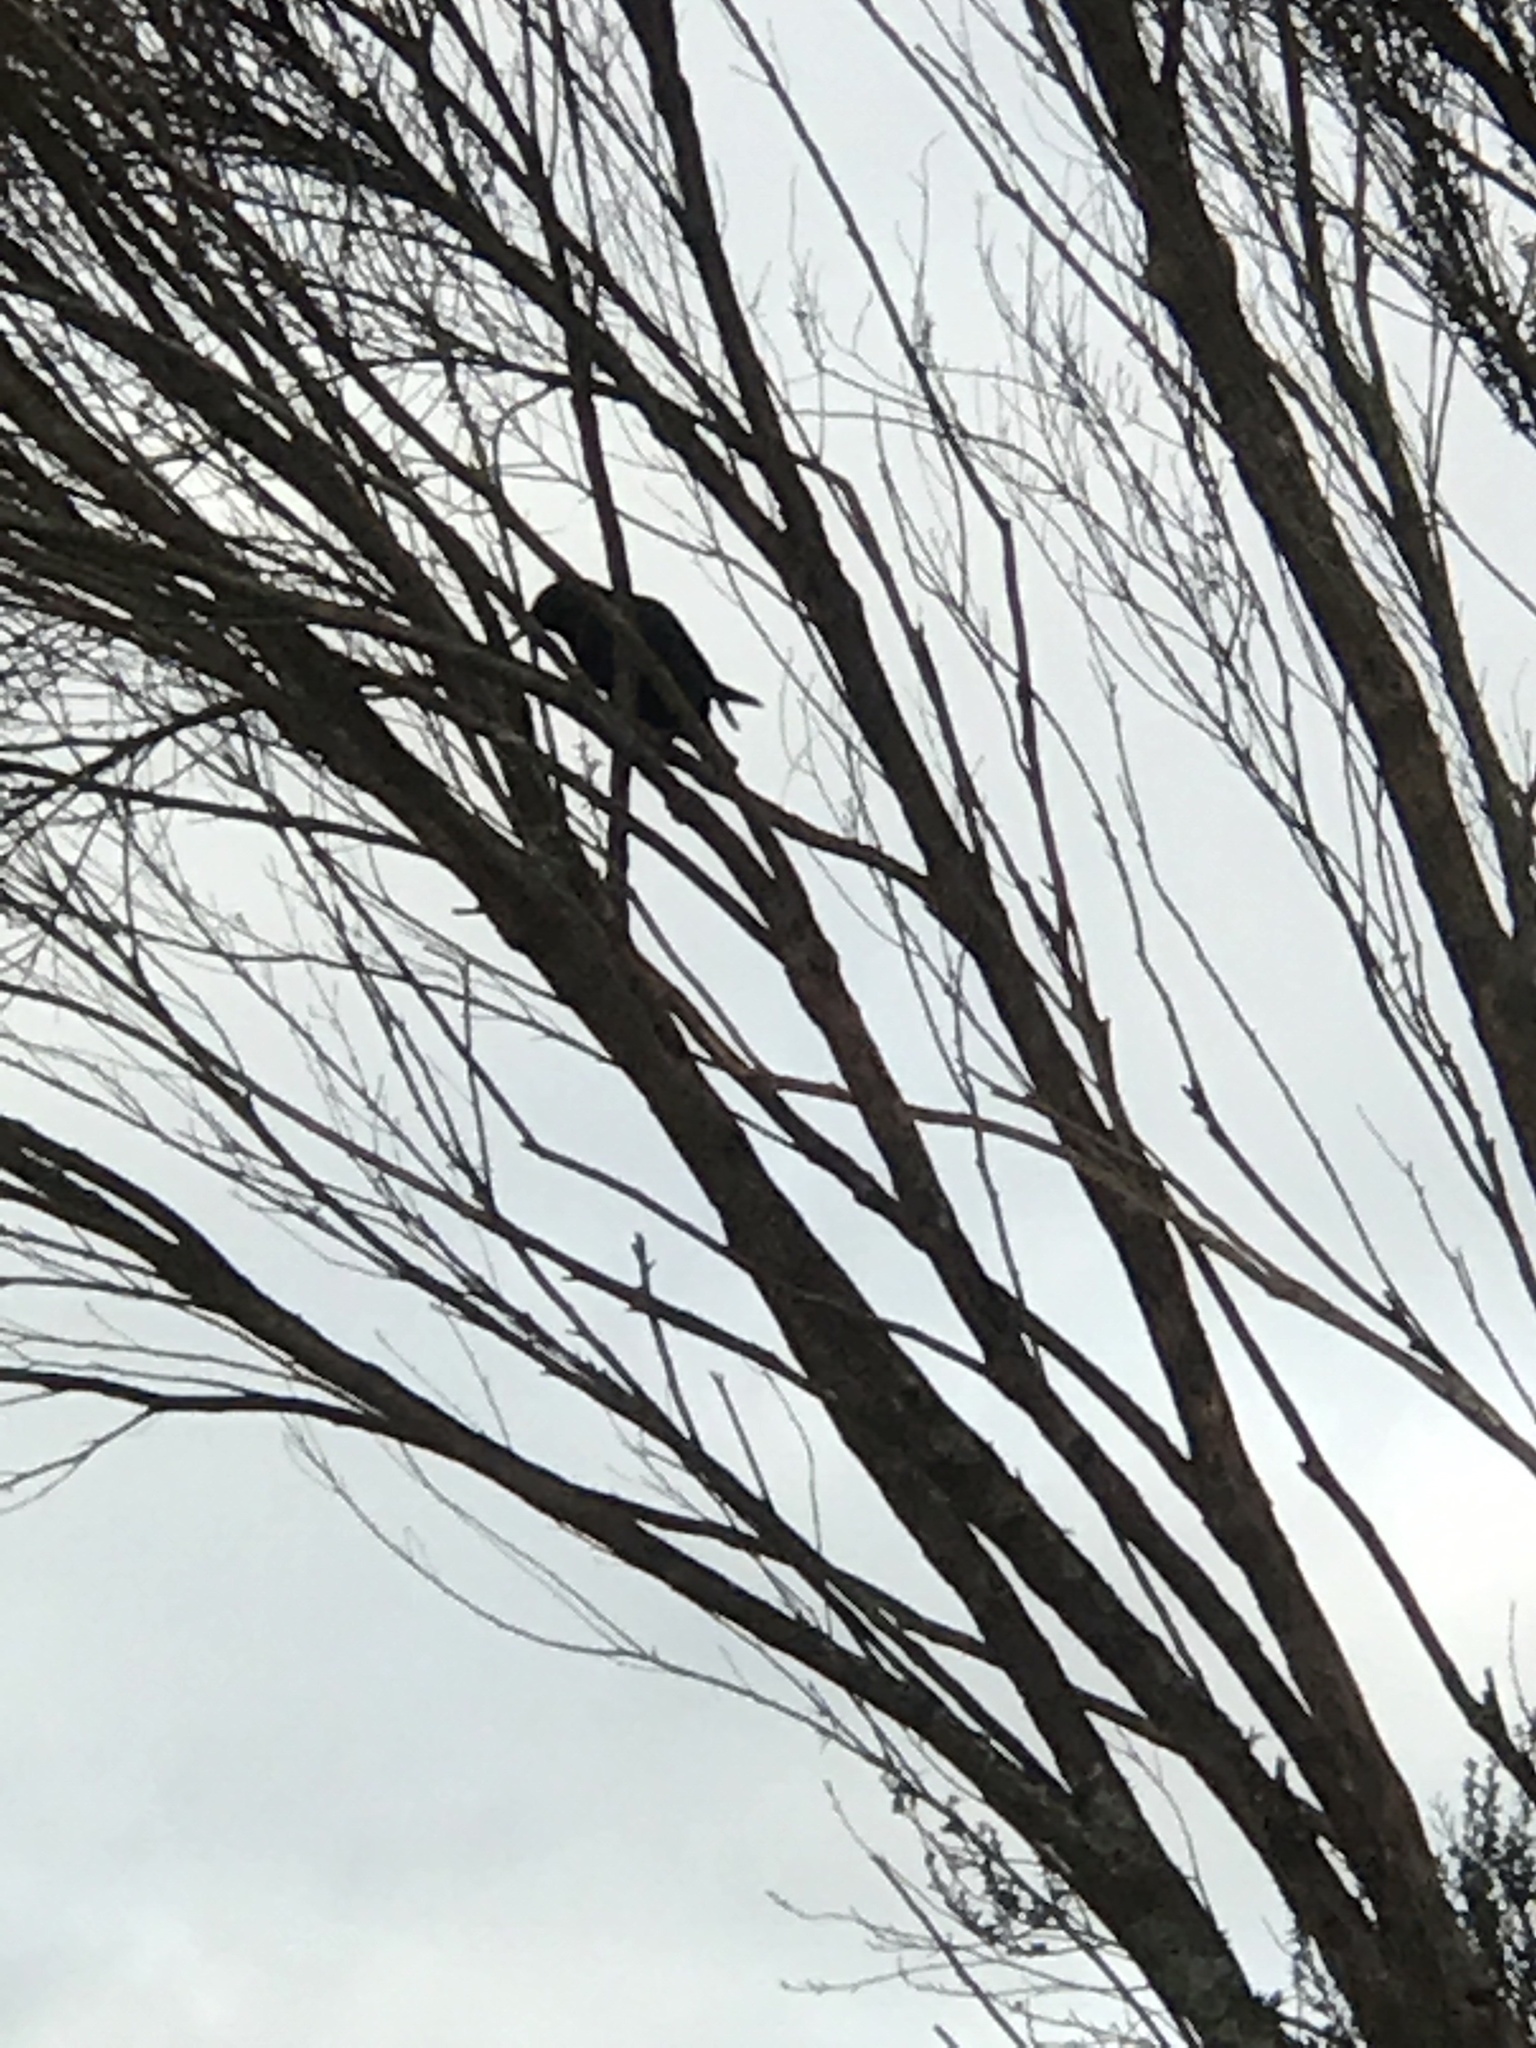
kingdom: Animalia
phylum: Chordata
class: Aves
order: Passeriformes
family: Sturnidae
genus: Sturnus
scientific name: Sturnus vulgaris
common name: Common starling
